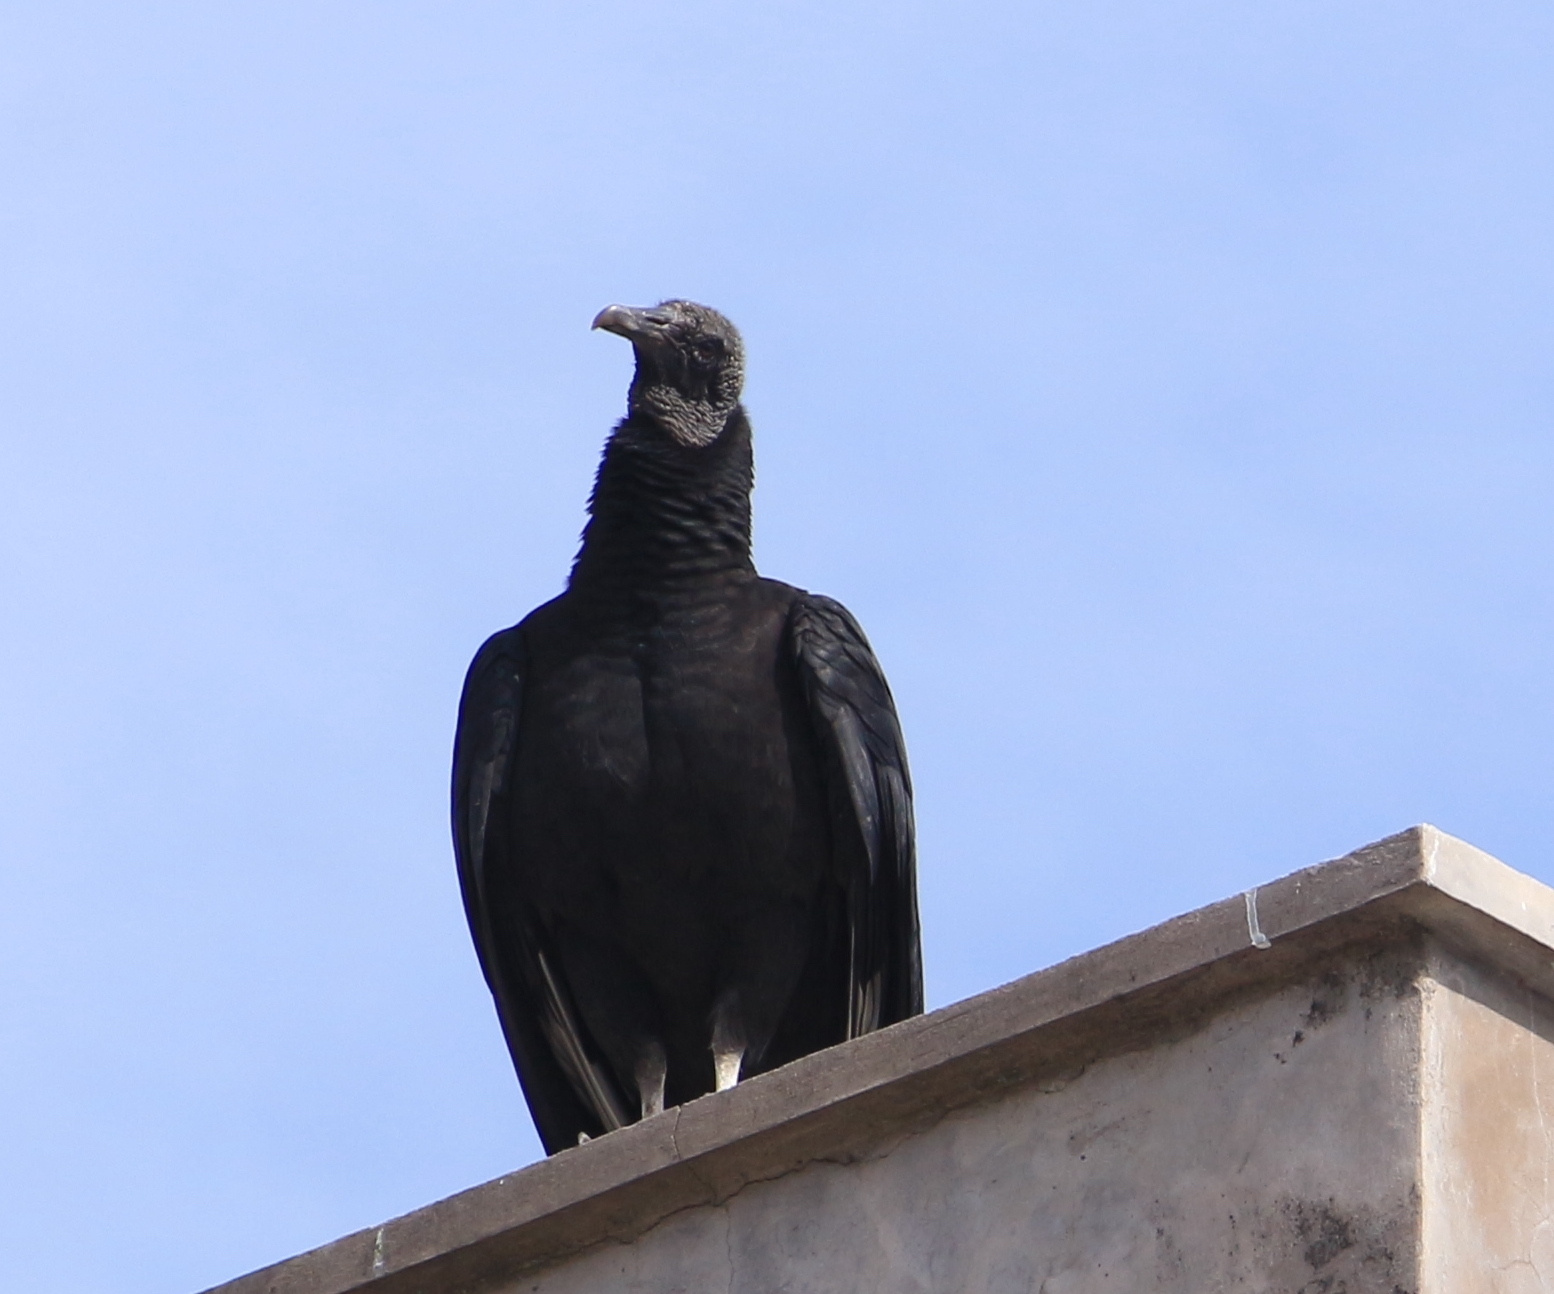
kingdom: Animalia
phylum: Chordata
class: Aves
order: Accipitriformes
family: Cathartidae
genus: Coragyps
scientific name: Coragyps atratus
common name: Black vulture
